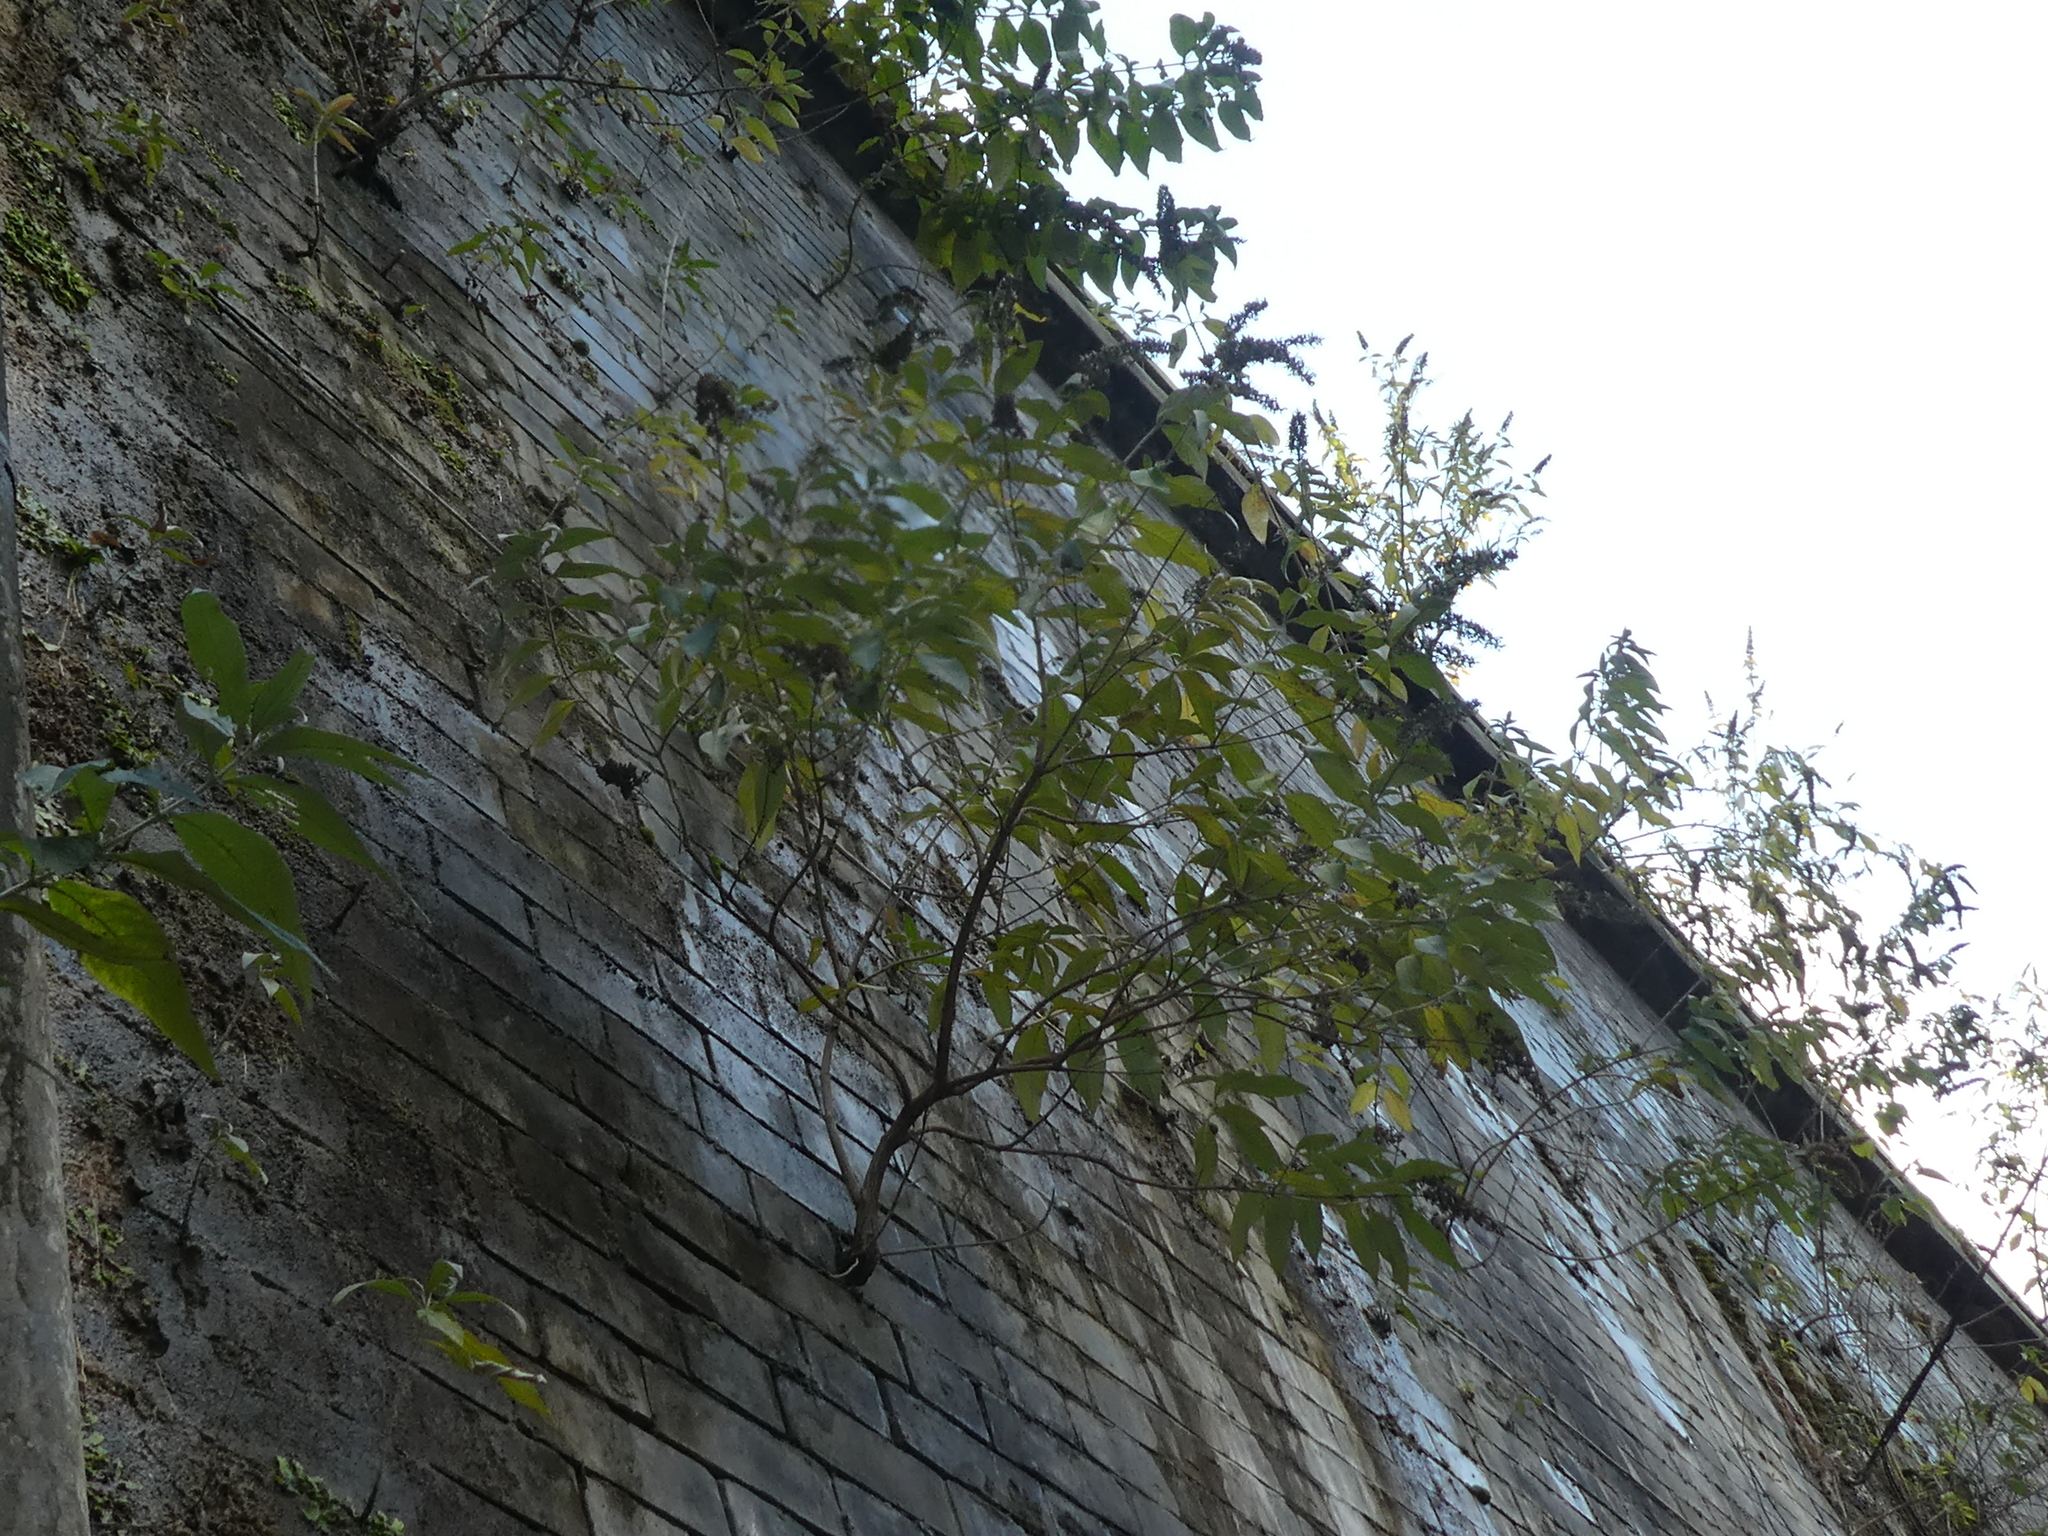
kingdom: Plantae
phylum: Tracheophyta
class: Magnoliopsida
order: Lamiales
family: Scrophulariaceae
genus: Buddleja
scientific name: Buddleja davidii
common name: Butterfly-bush
